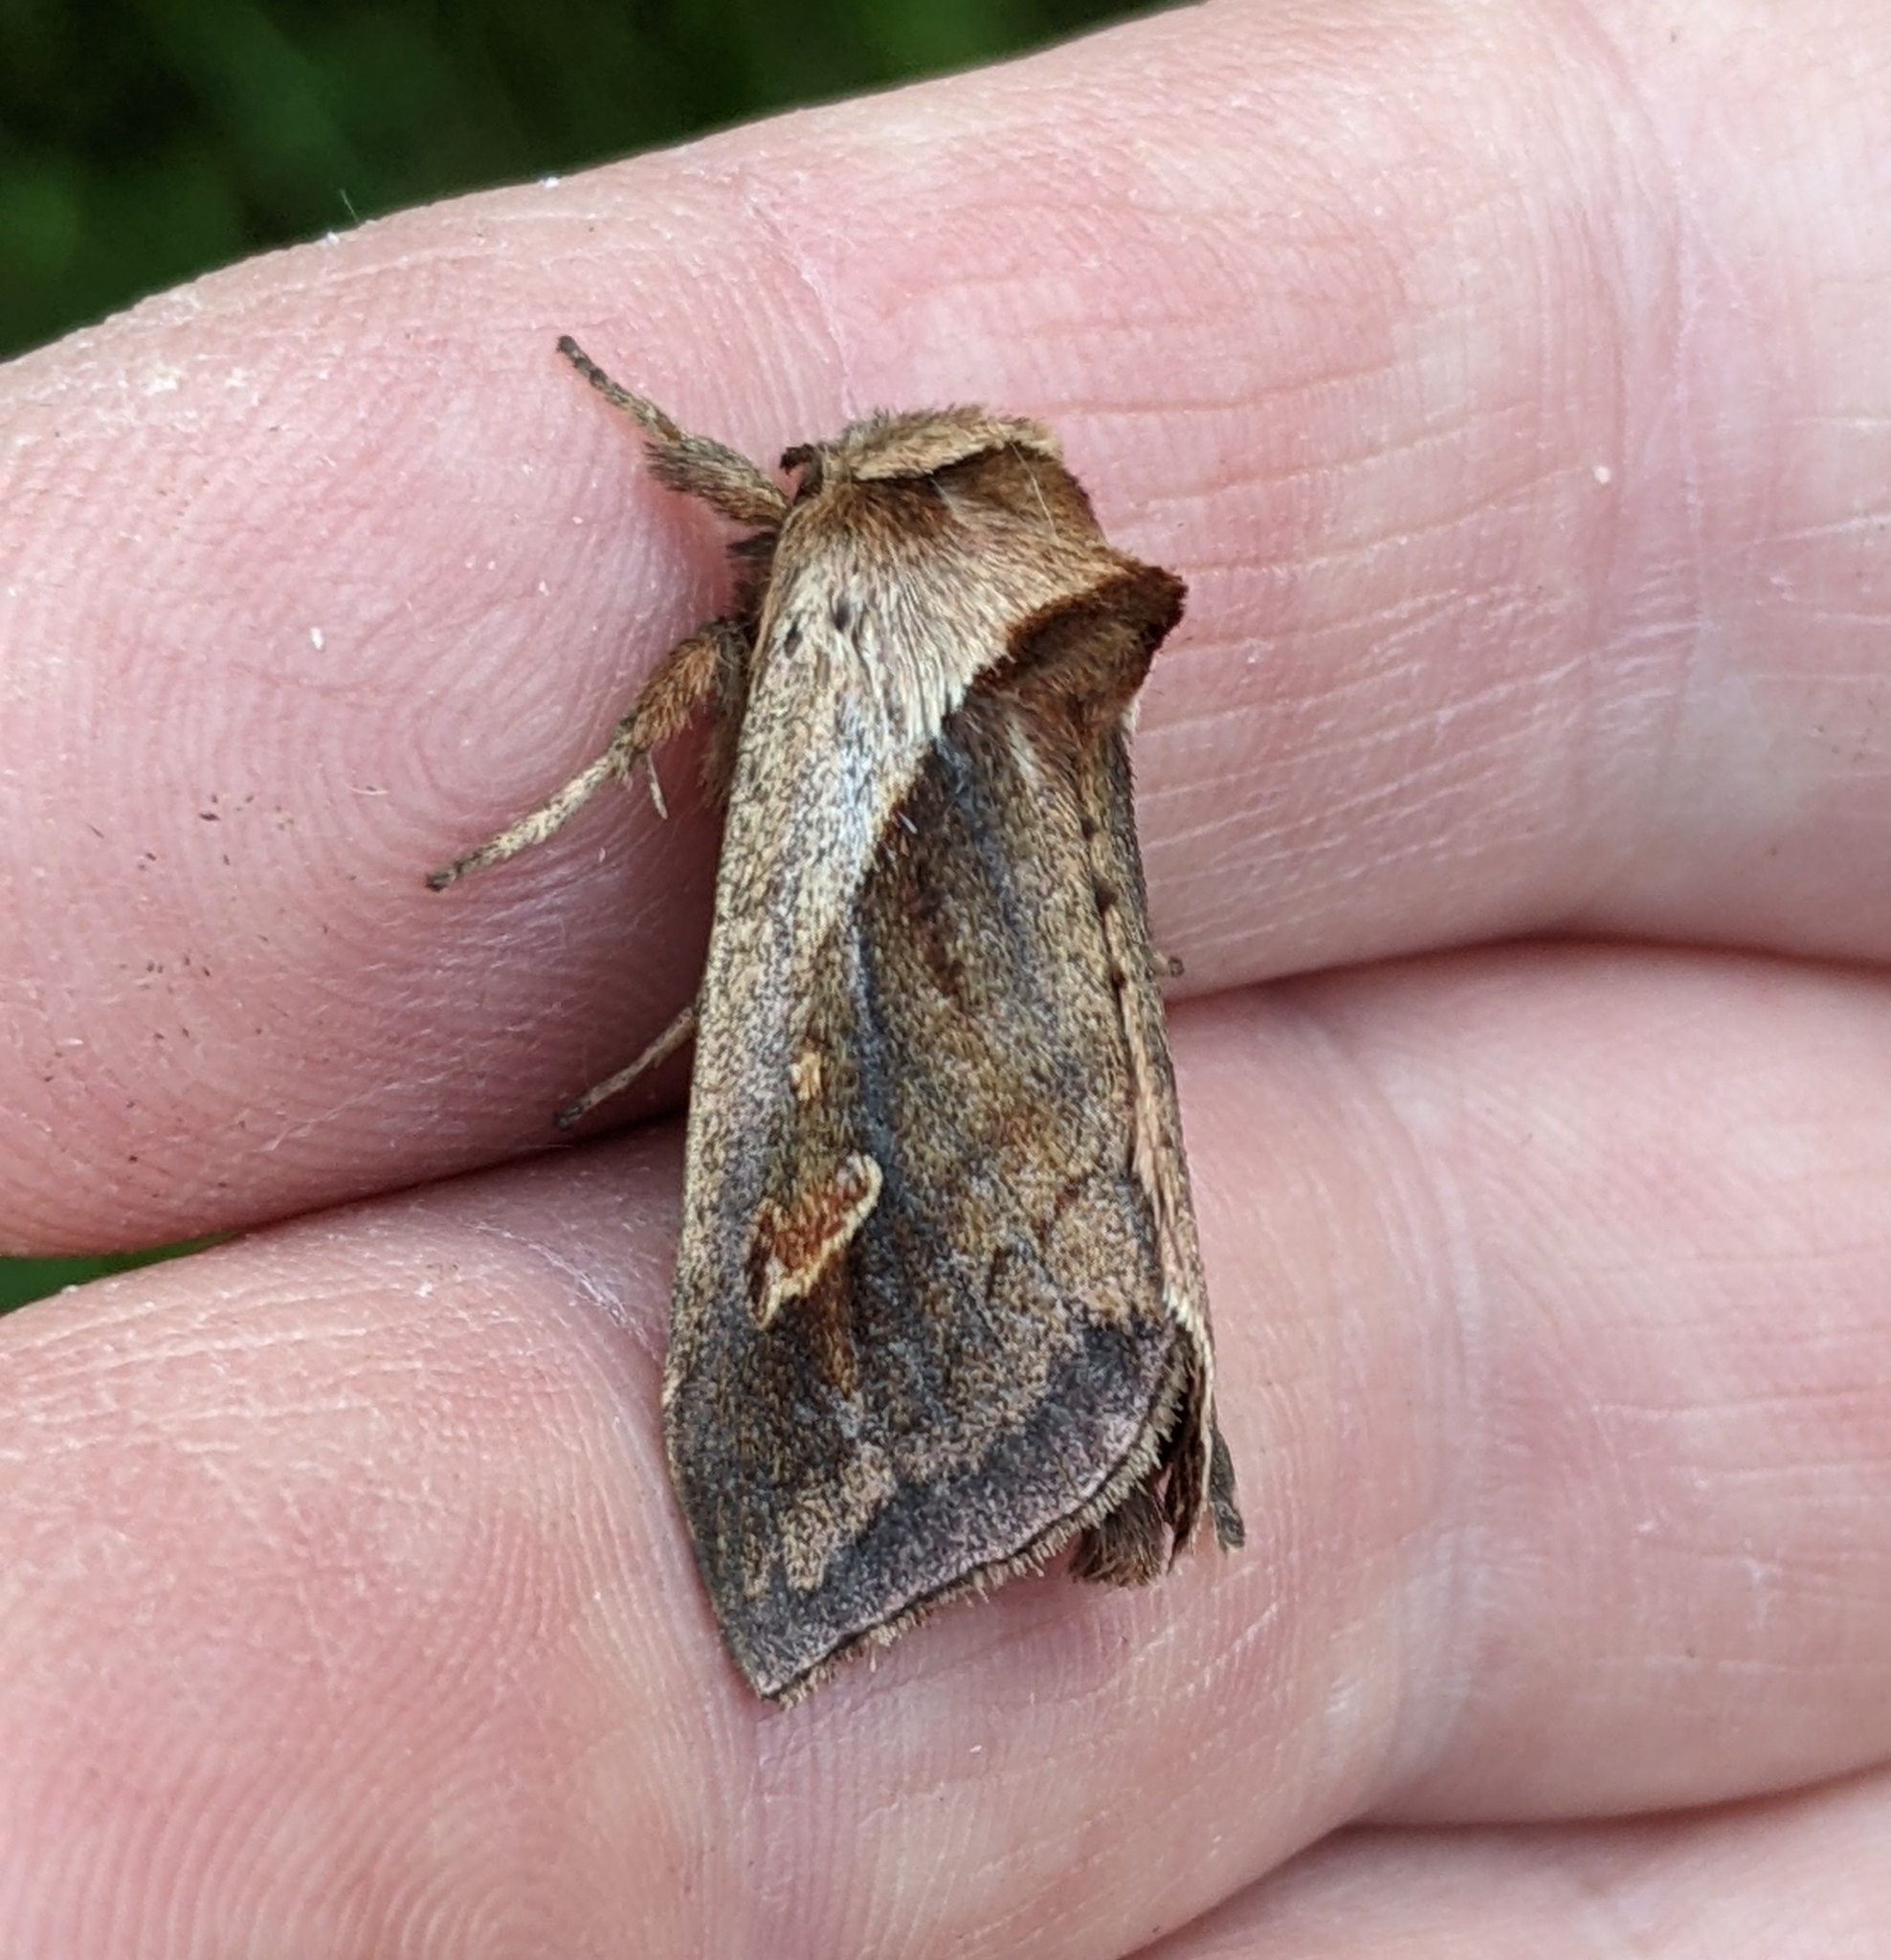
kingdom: Animalia
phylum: Arthropoda
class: Insecta
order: Lepidoptera
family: Noctuidae
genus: Bellura
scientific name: Bellura obliqua
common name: Cattail borer moth
